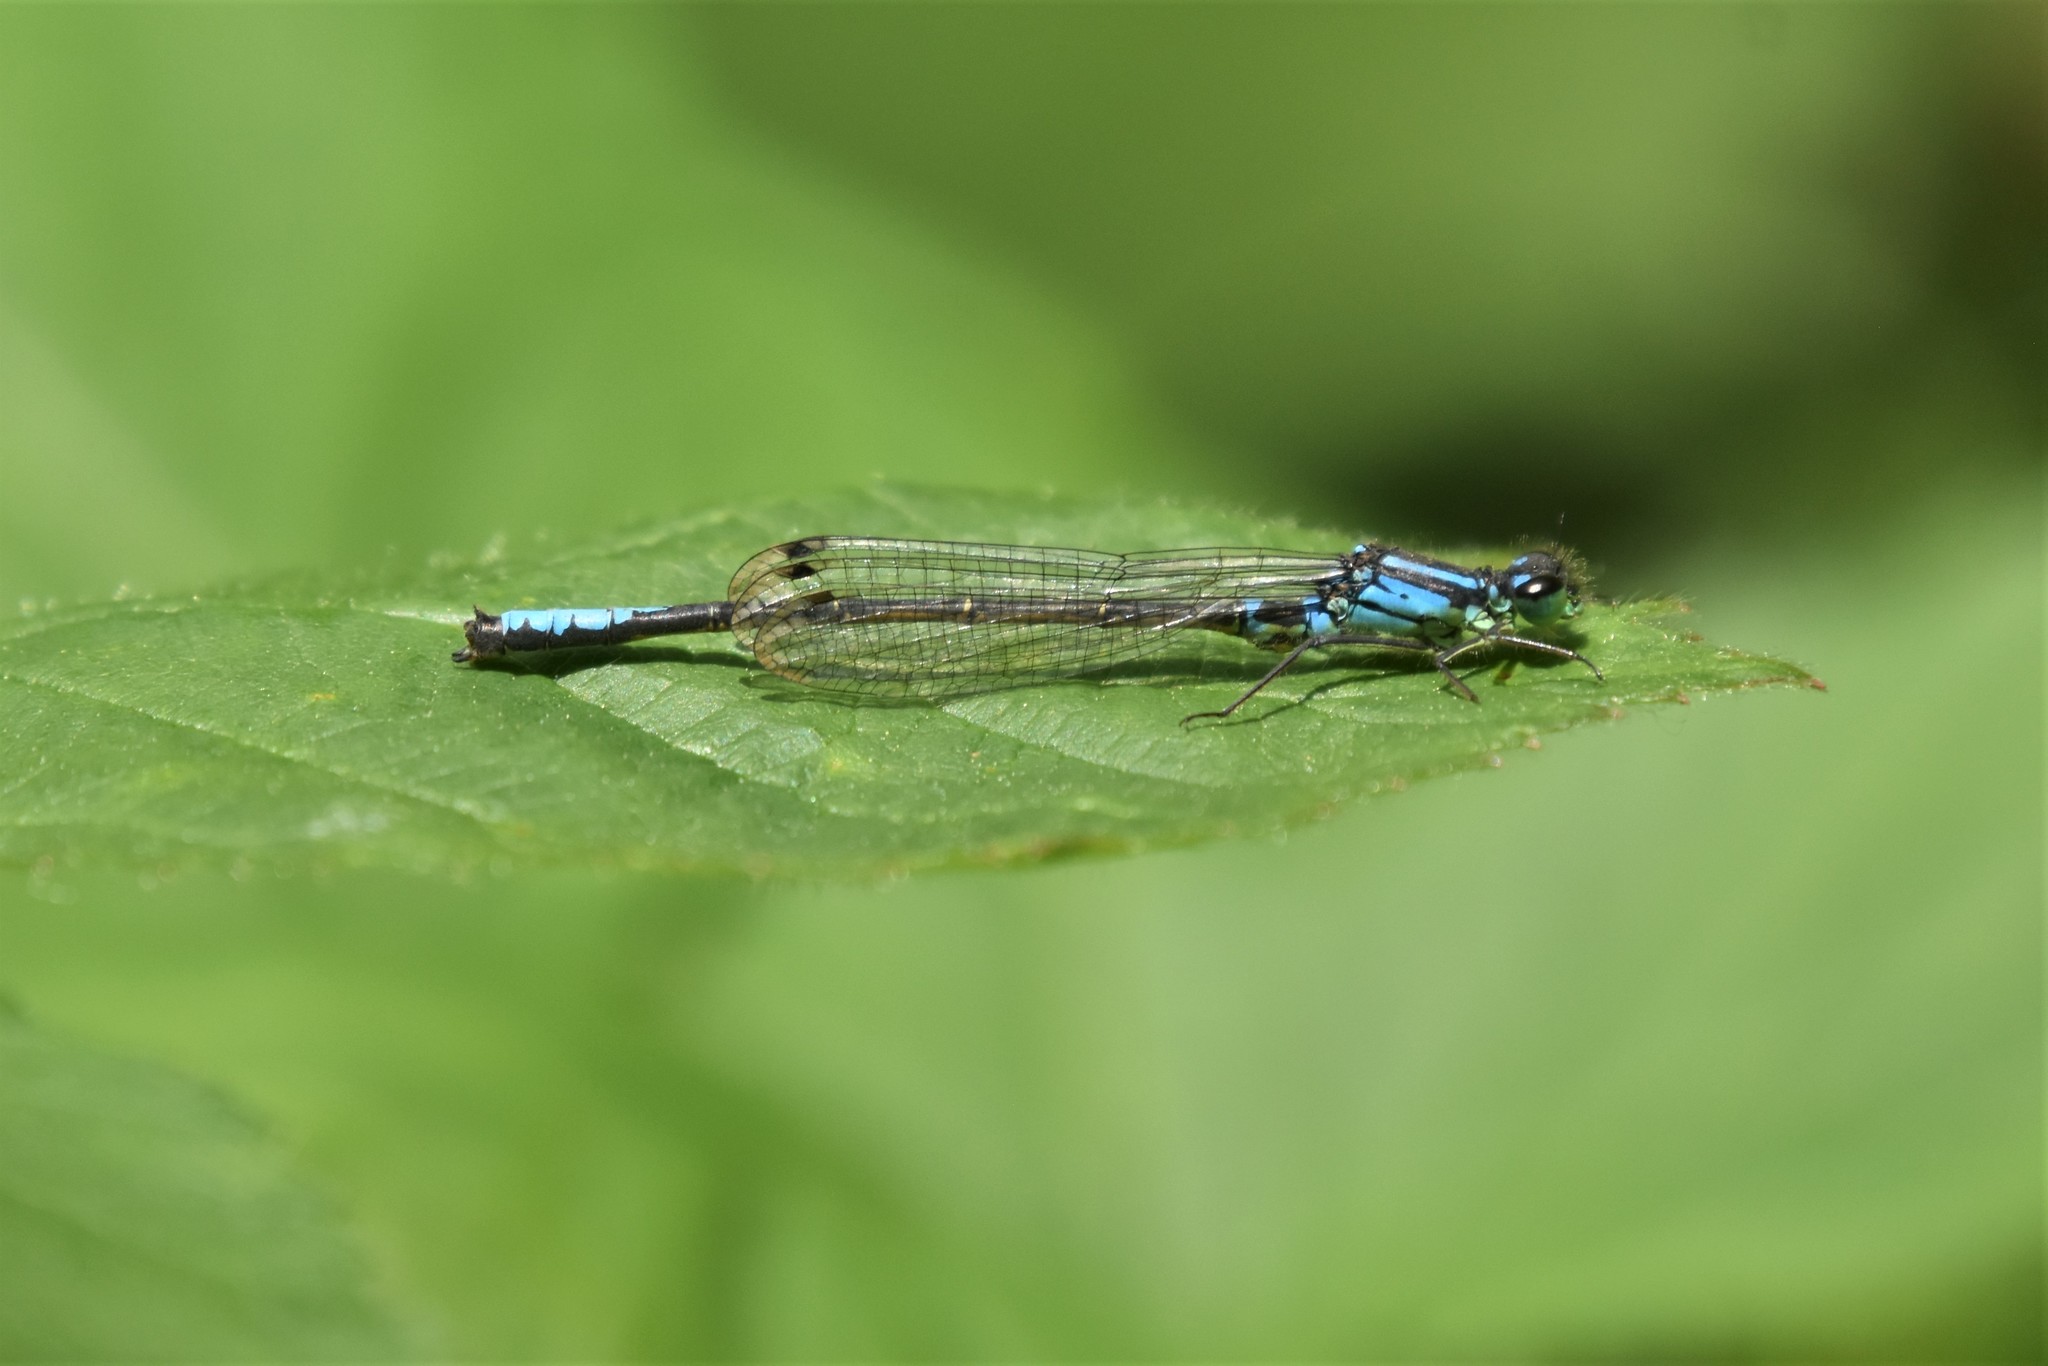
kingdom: Animalia
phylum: Arthropoda
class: Insecta
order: Odonata
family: Coenagrionidae
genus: Ischnura
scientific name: Ischnura erratica
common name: Swift forktail
